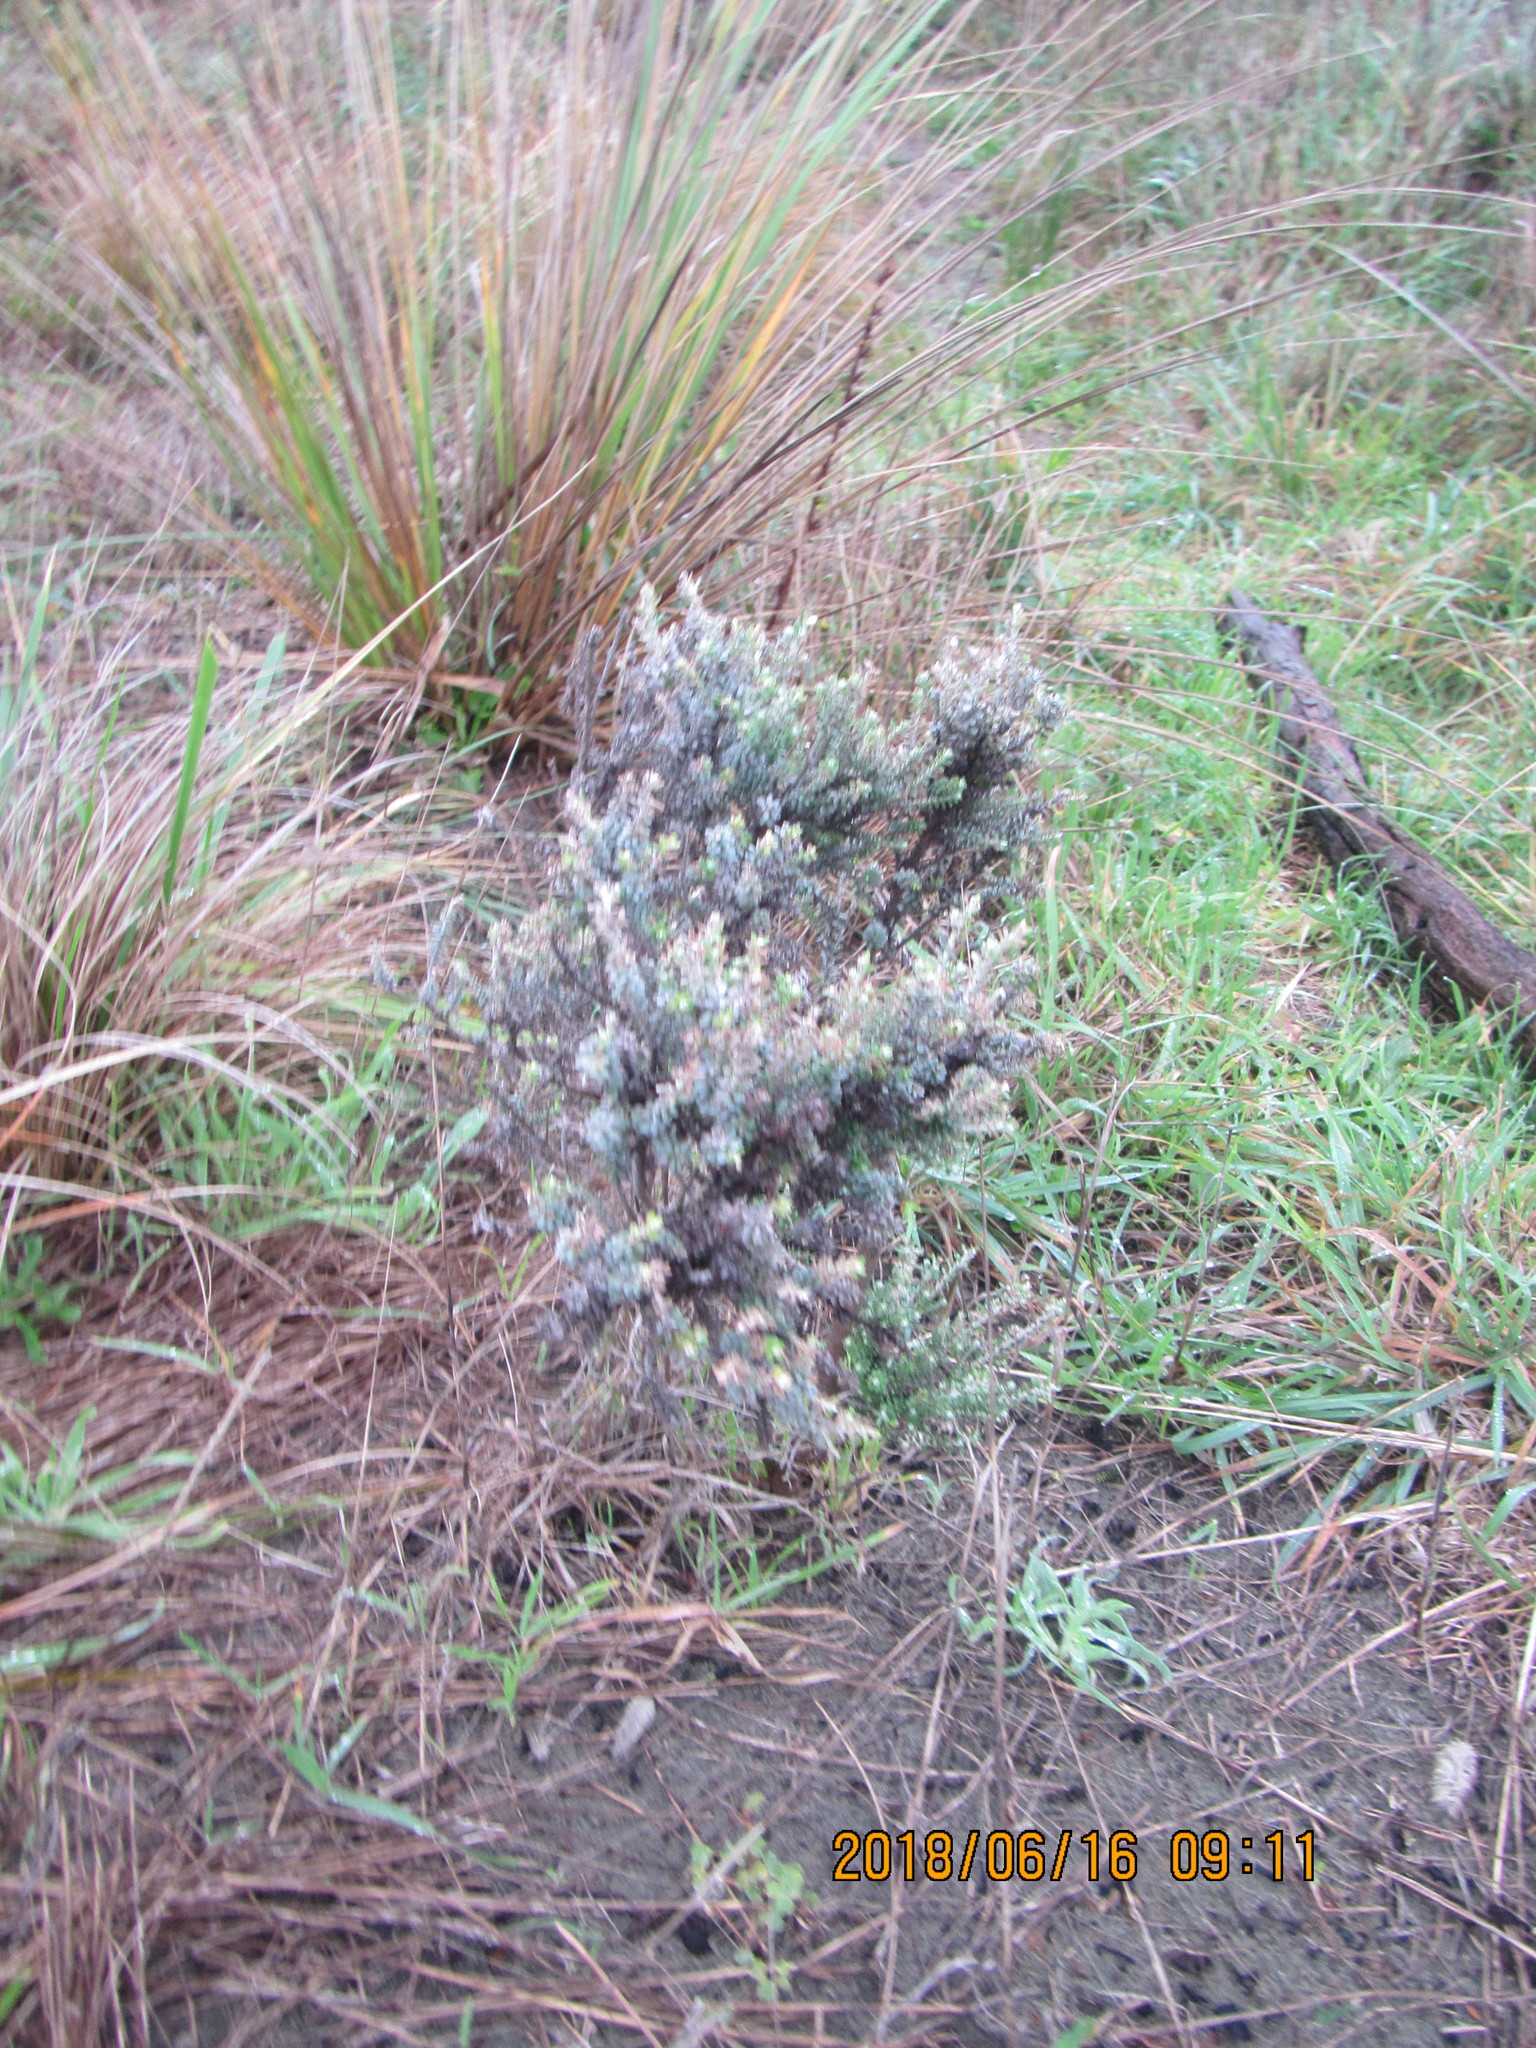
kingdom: Plantae
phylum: Tracheophyta
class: Magnoliopsida
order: Asterales
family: Asteraceae
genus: Ozothamnus
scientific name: Ozothamnus leptophyllus
